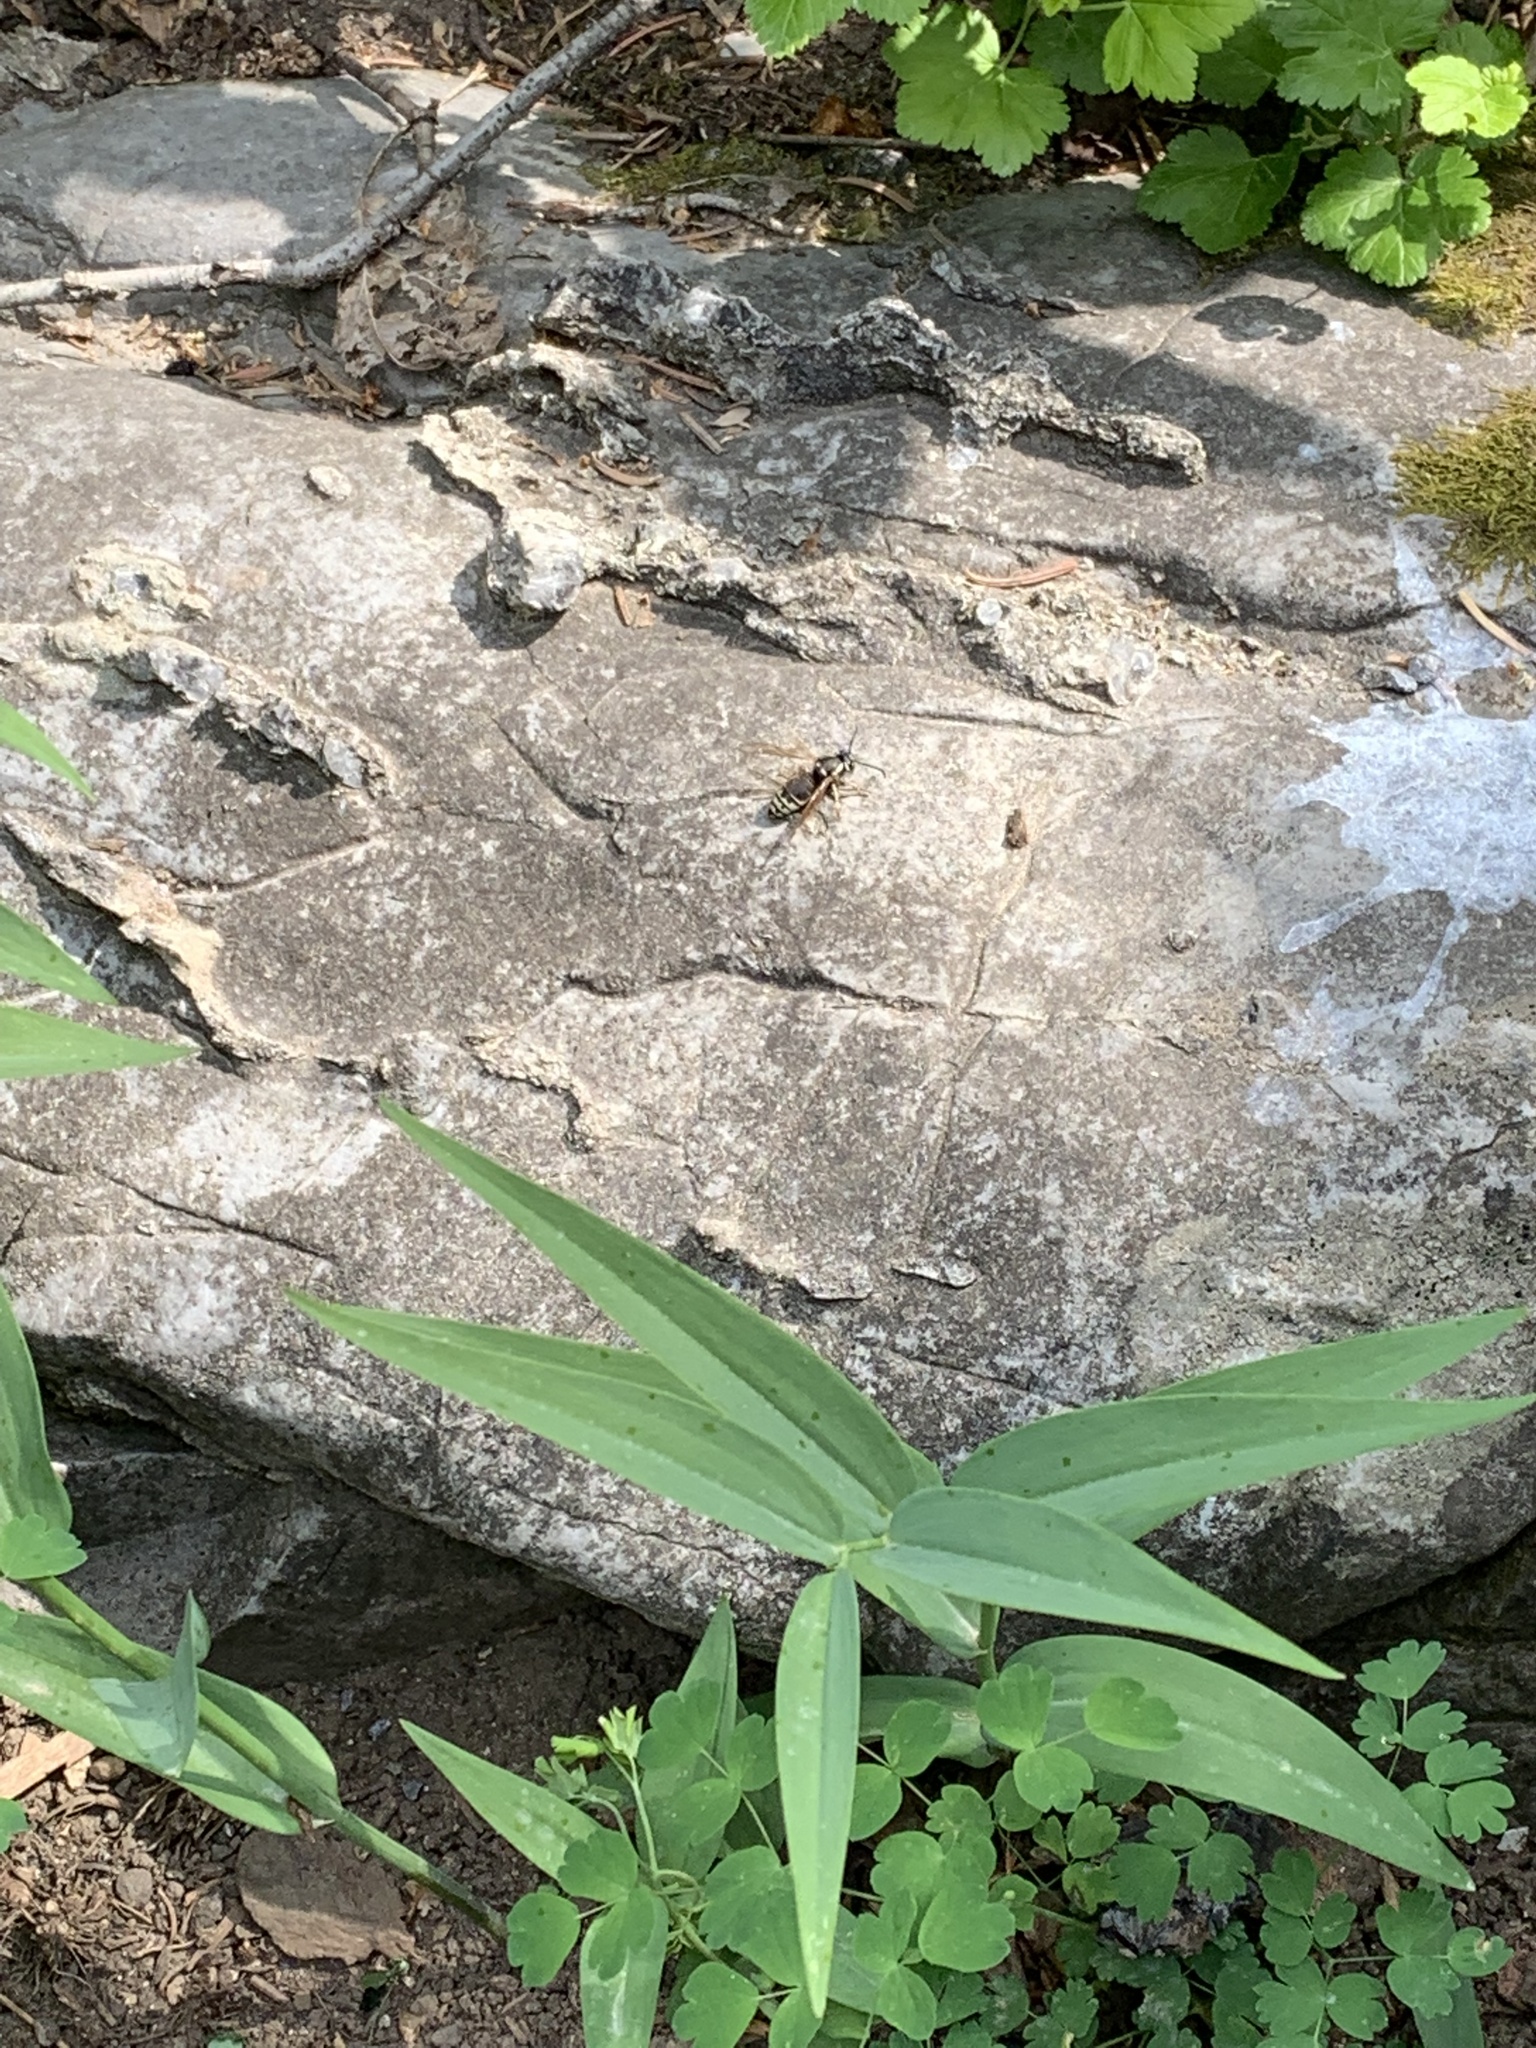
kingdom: Animalia
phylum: Arthropoda
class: Insecta
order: Hymenoptera
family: Vespidae
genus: Vespula
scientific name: Vespula consobrina
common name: Blackjacket
